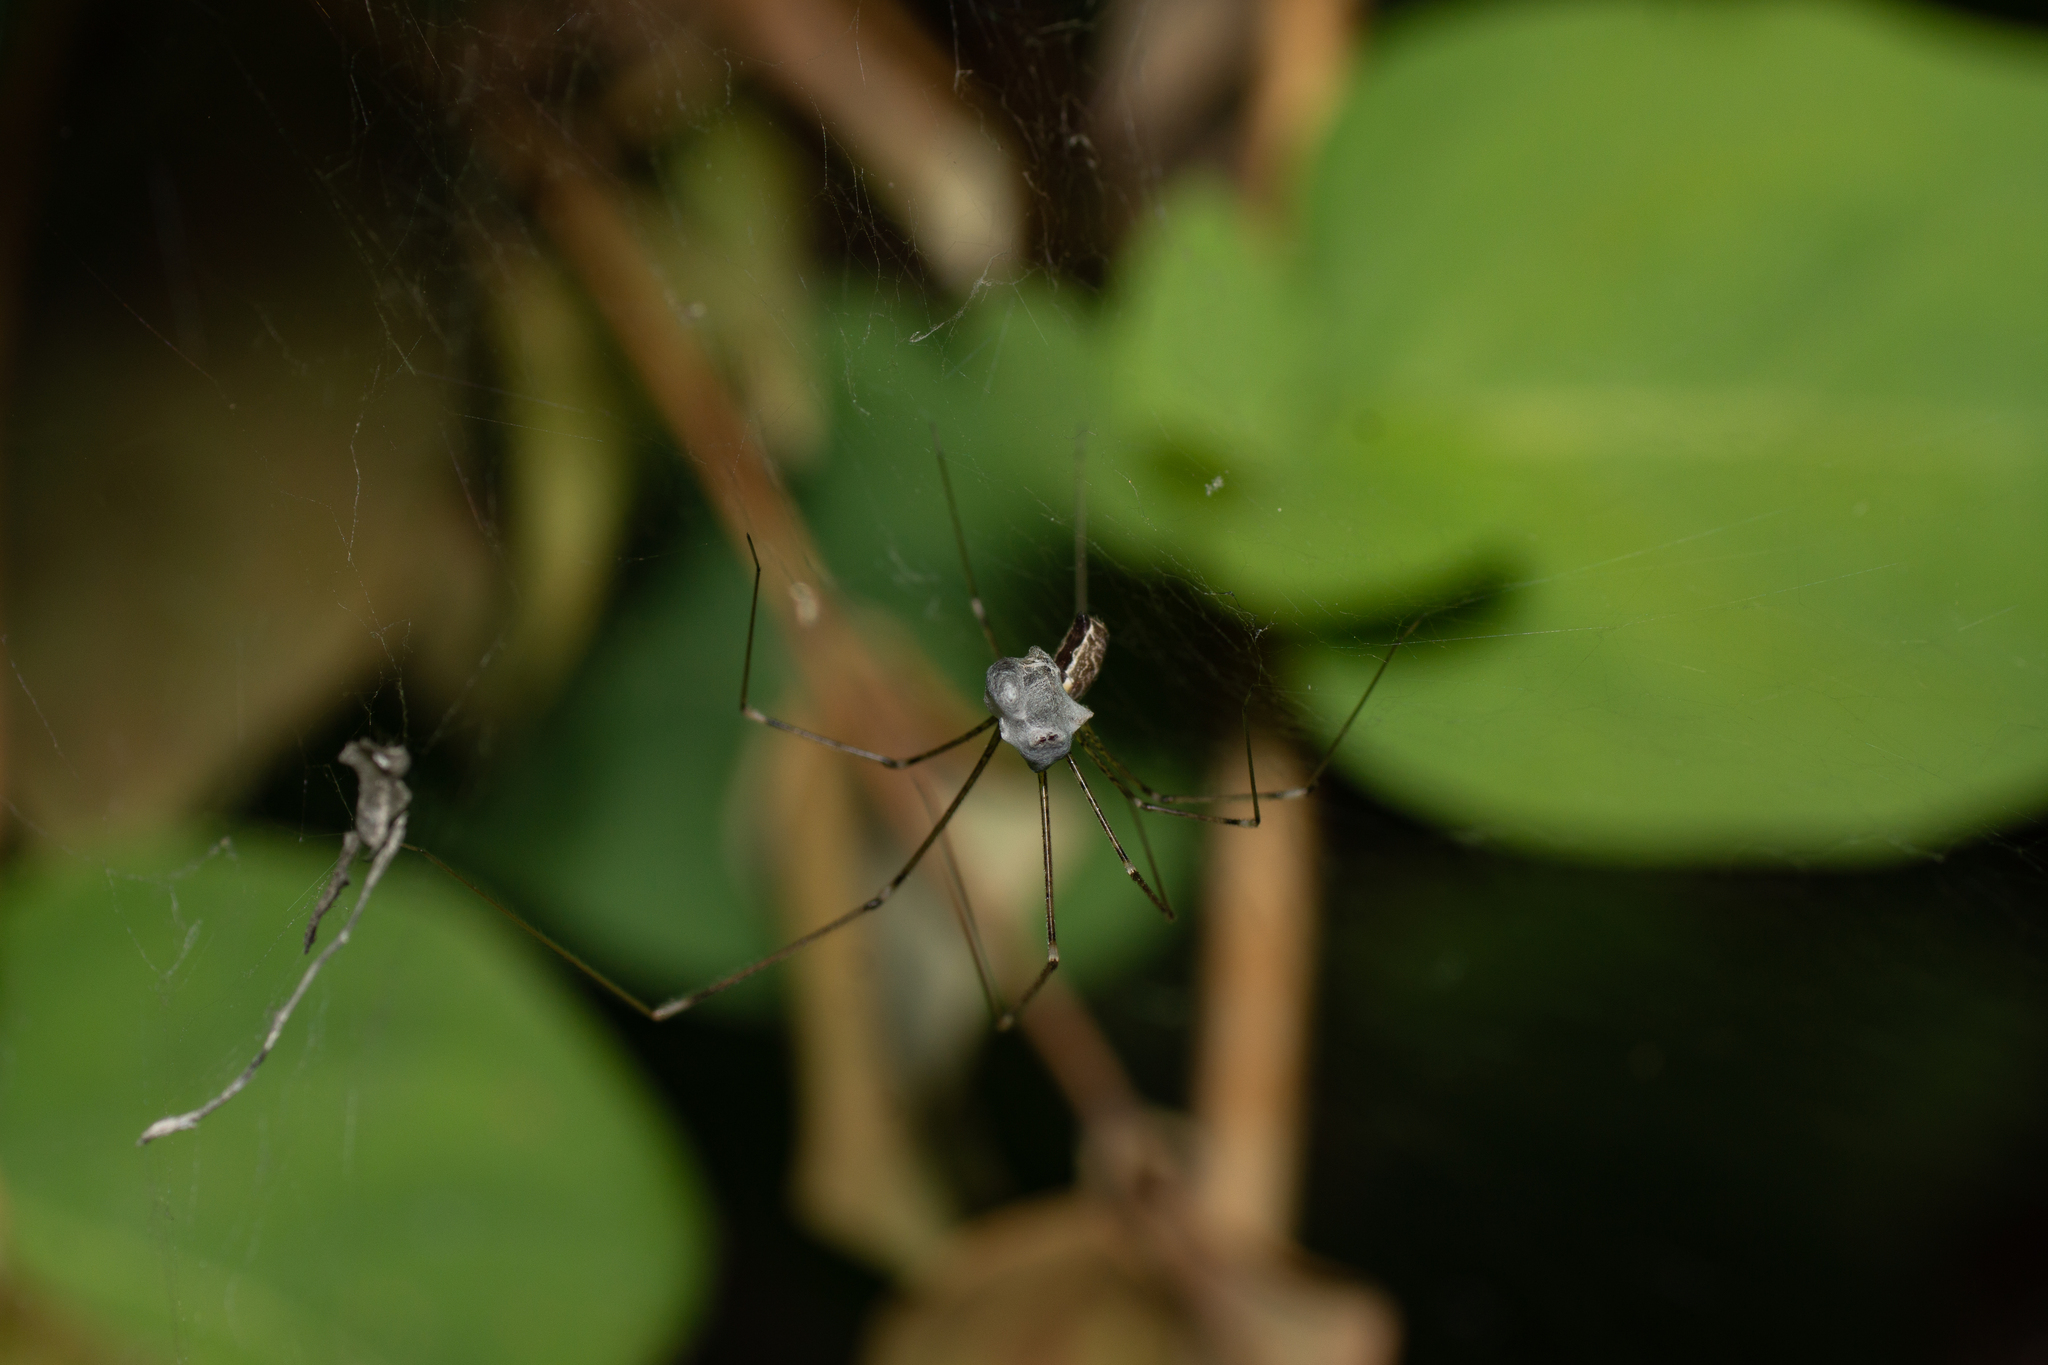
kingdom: Animalia
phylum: Arthropoda
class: Arachnida
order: Araneae
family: Pholcidae
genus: Holocnemus
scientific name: Holocnemus pluchei
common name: Marbled cellar spider
